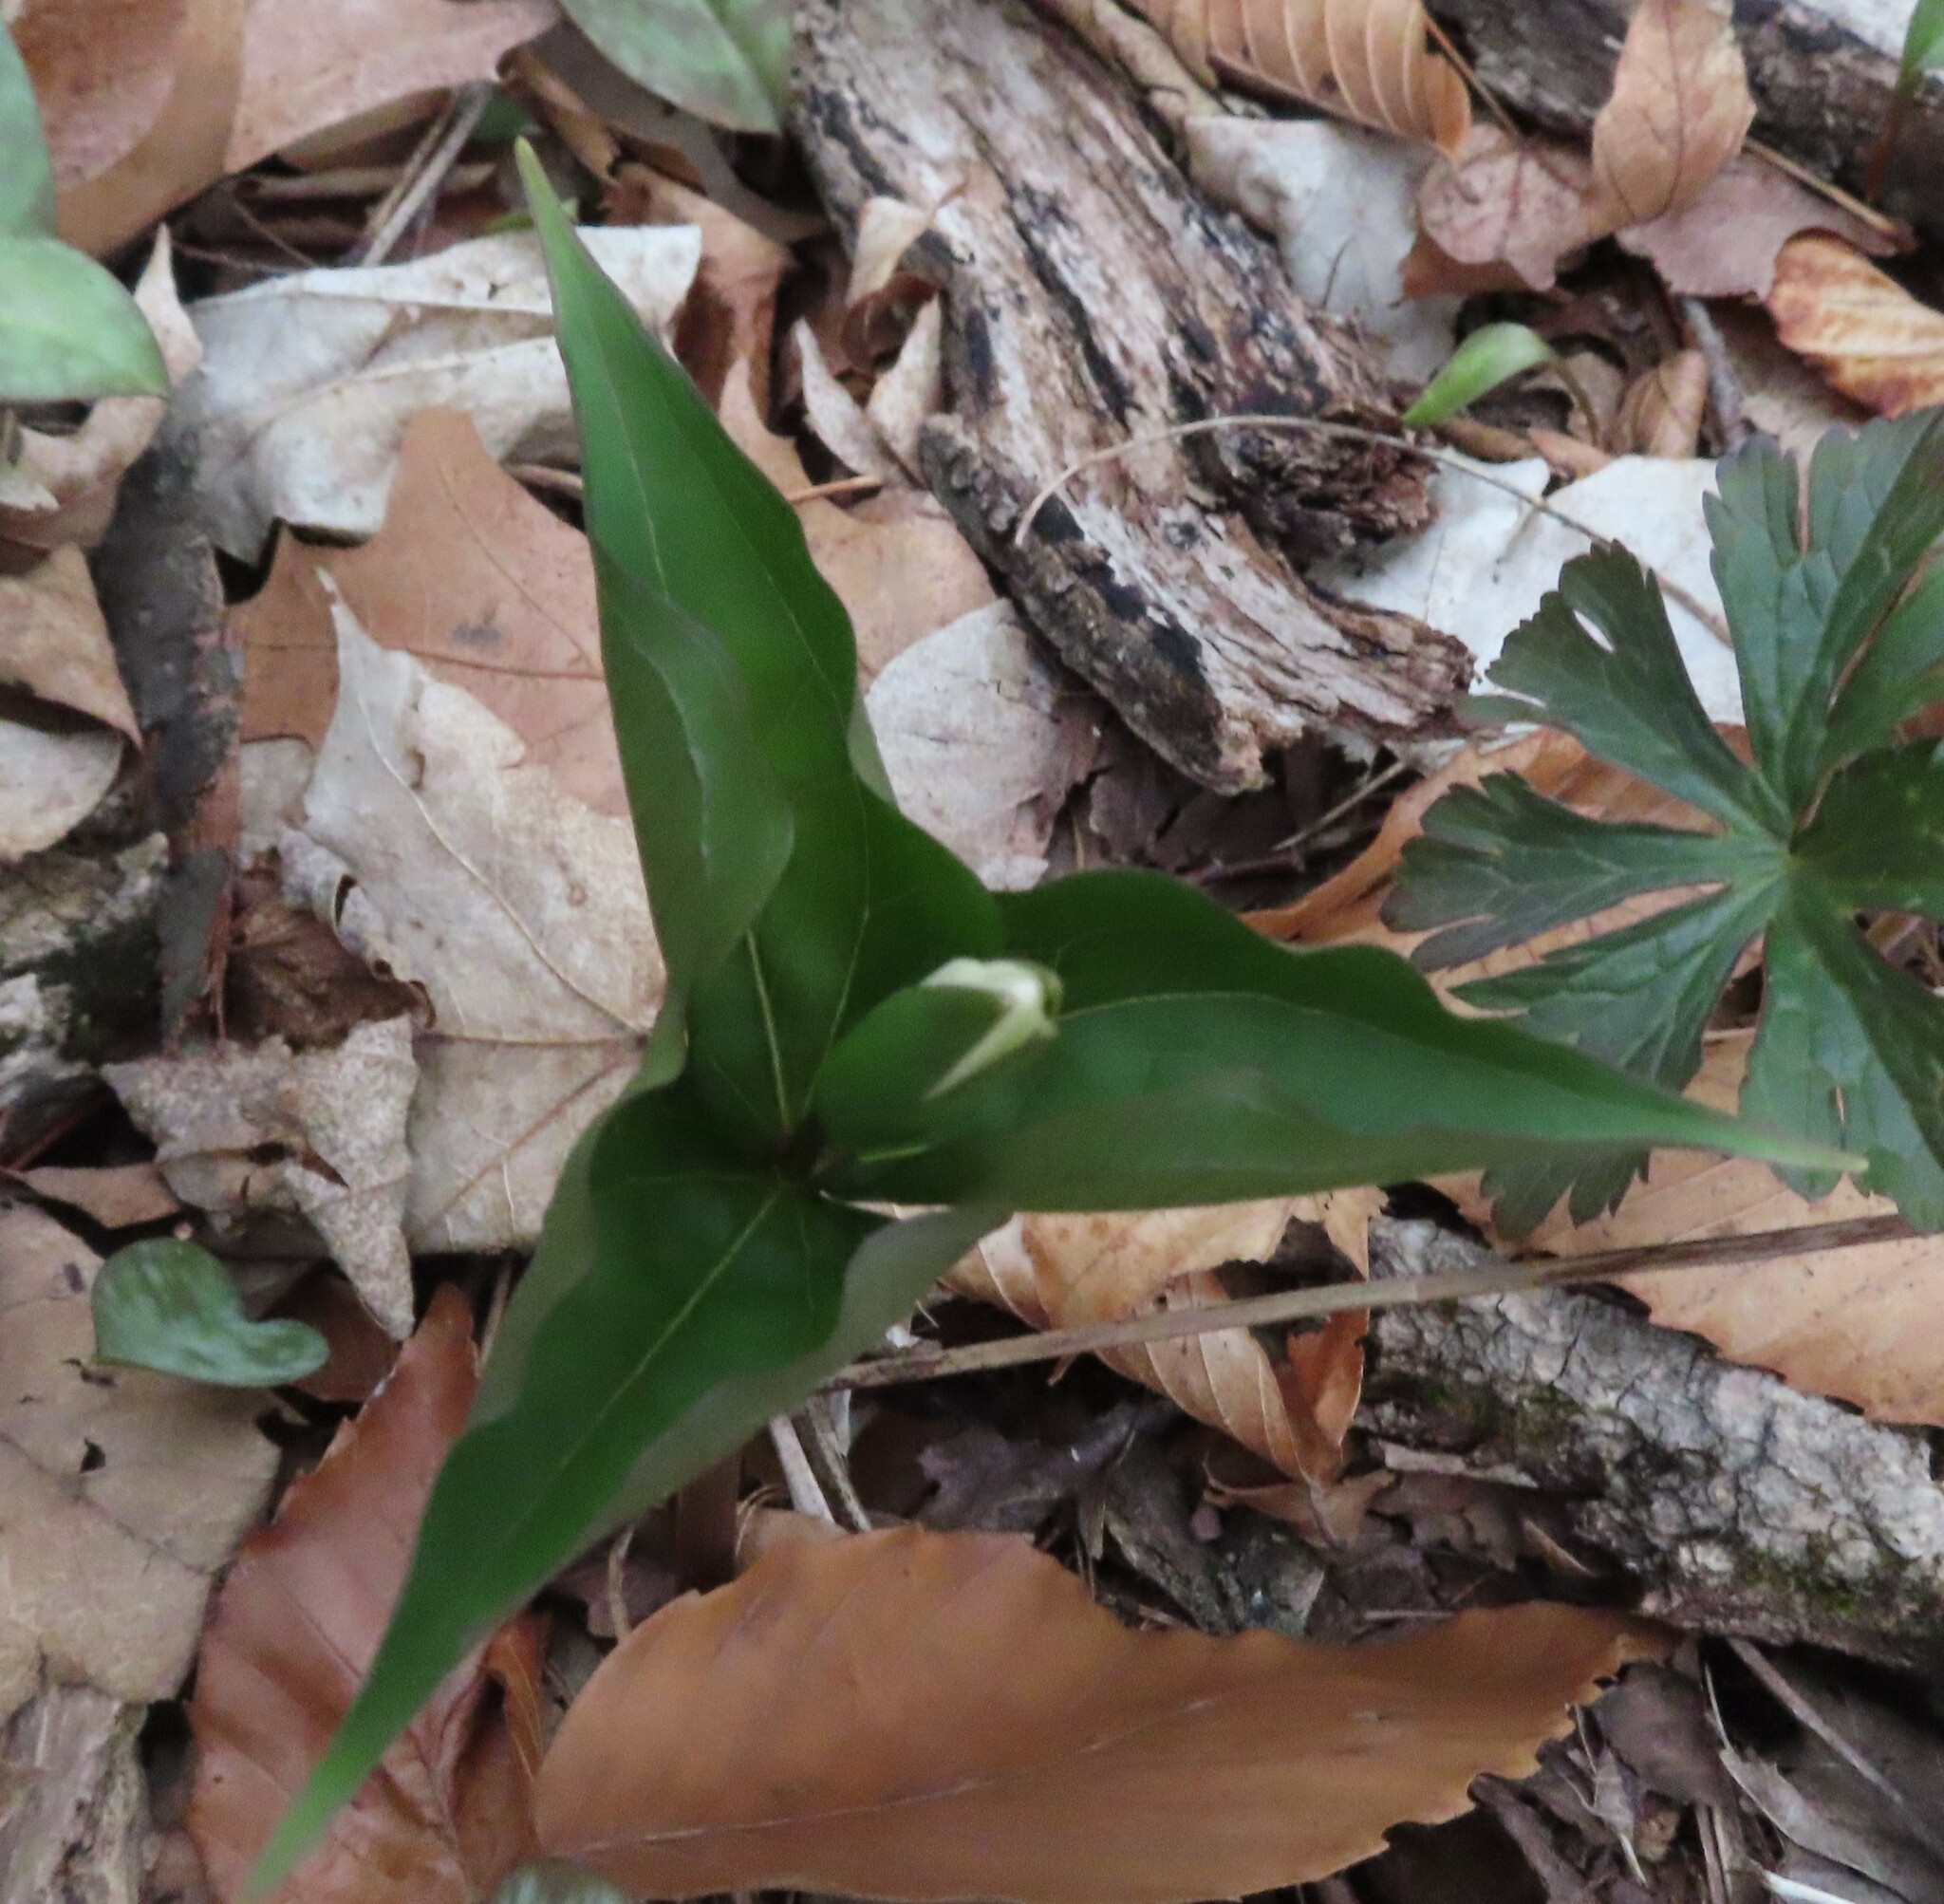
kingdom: Plantae
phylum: Tracheophyta
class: Liliopsida
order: Liliales
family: Melanthiaceae
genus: Trillium
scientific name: Trillium grandiflorum
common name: Great white trillium
